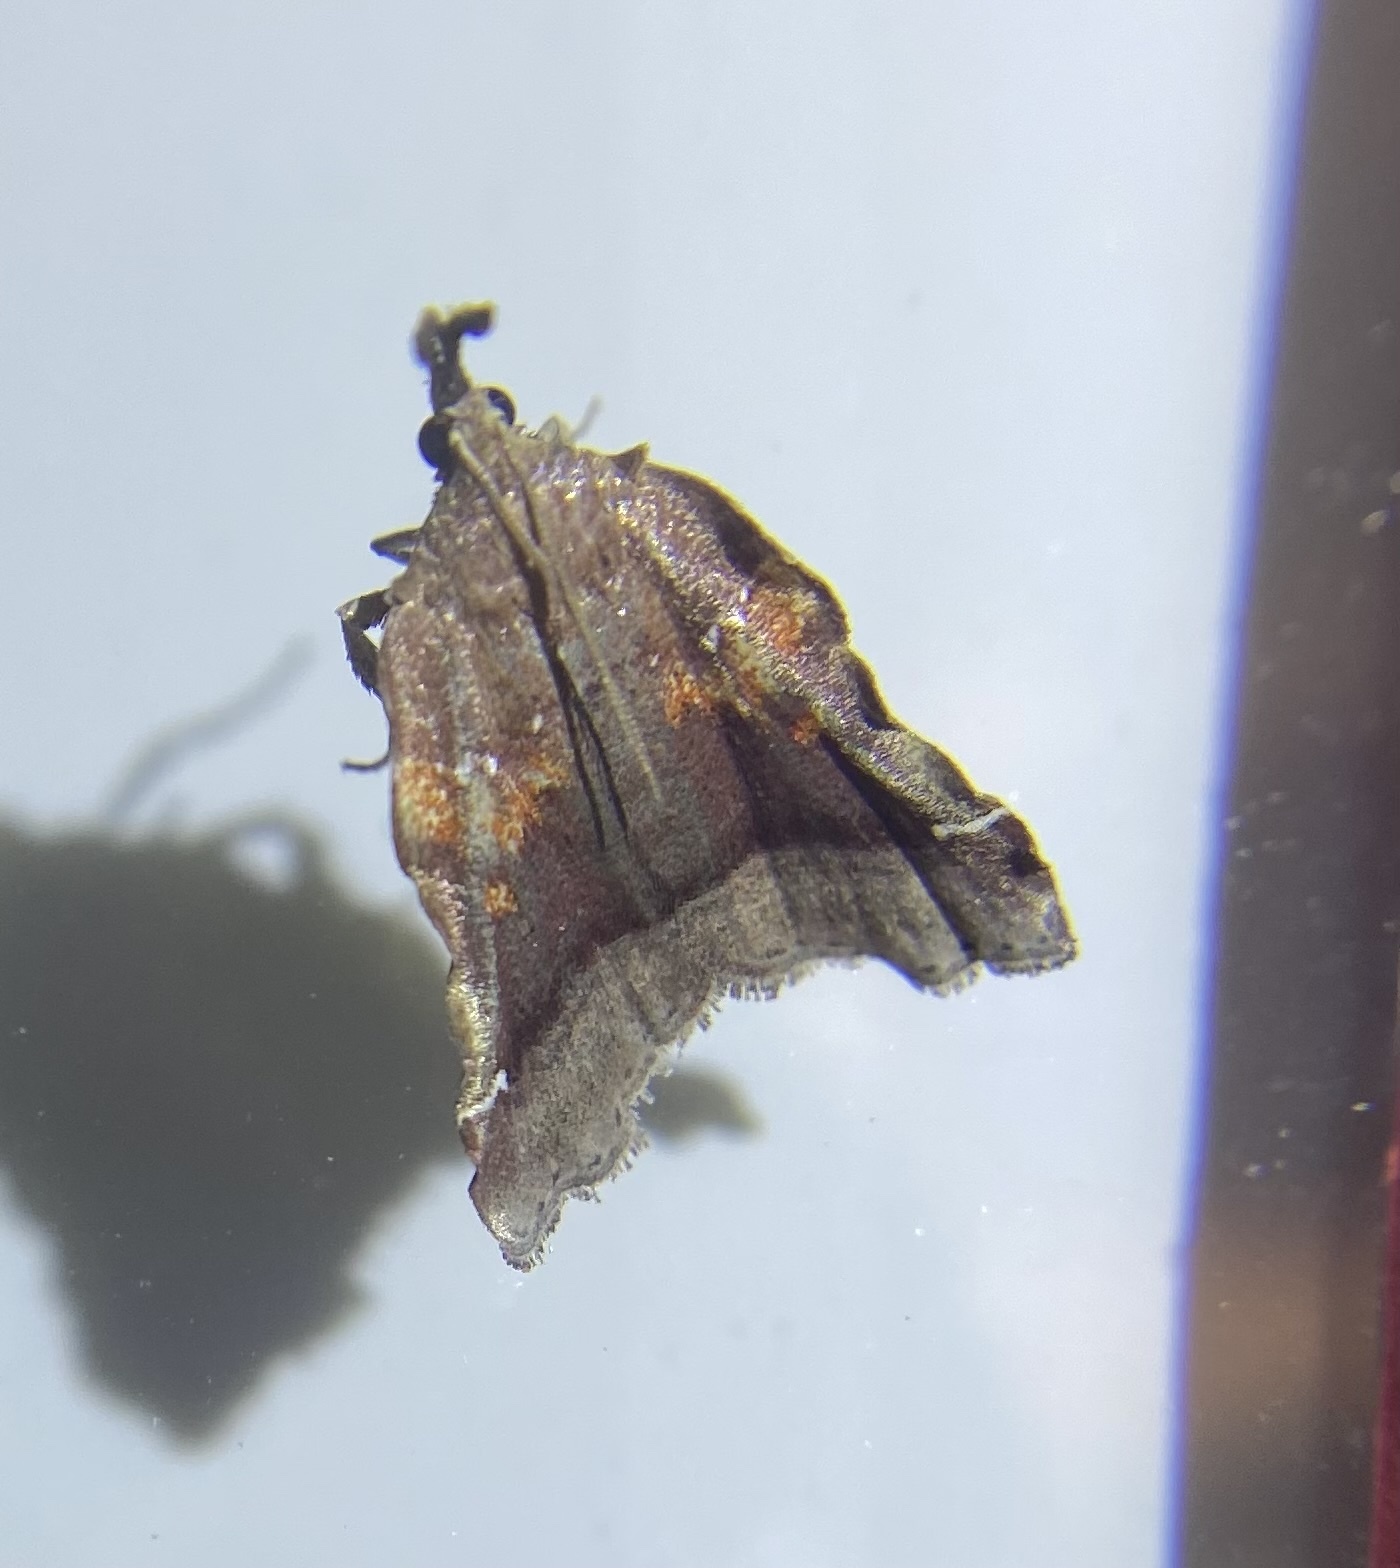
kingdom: Animalia
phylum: Arthropoda
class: Insecta
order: Lepidoptera
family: Pyralidae
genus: Clydonopteron
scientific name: Clydonopteron sacculana
